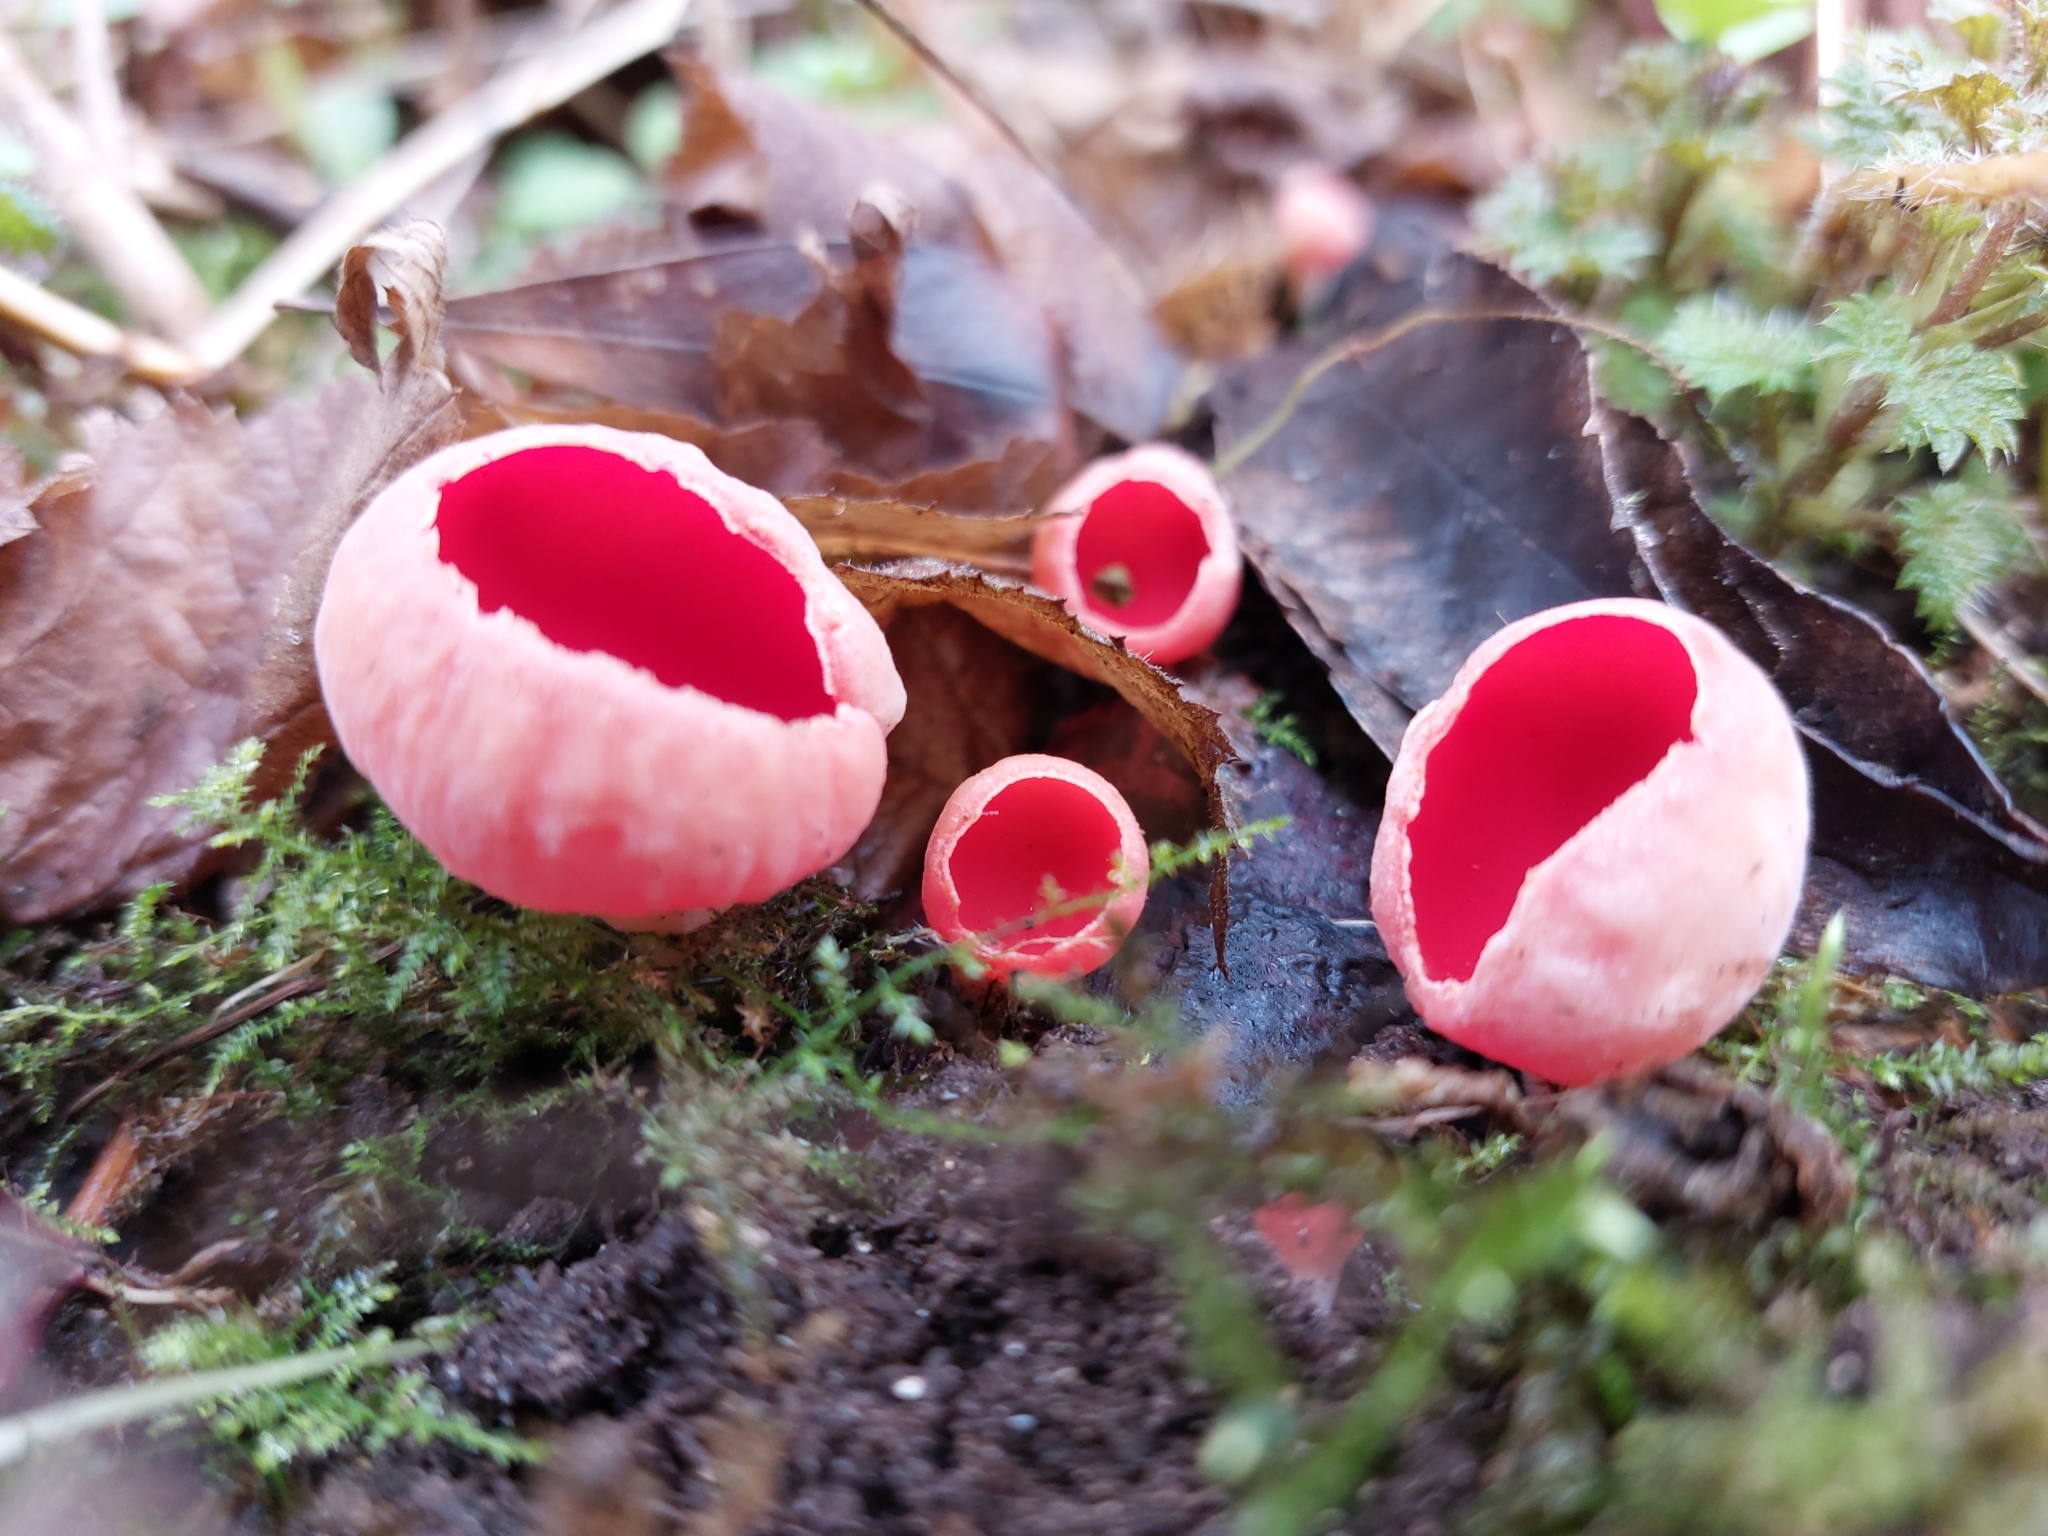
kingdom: Fungi
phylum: Ascomycota
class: Pezizomycetes
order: Pezizales
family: Sarcoscyphaceae
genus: Sarcoscypha
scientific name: Sarcoscypha
